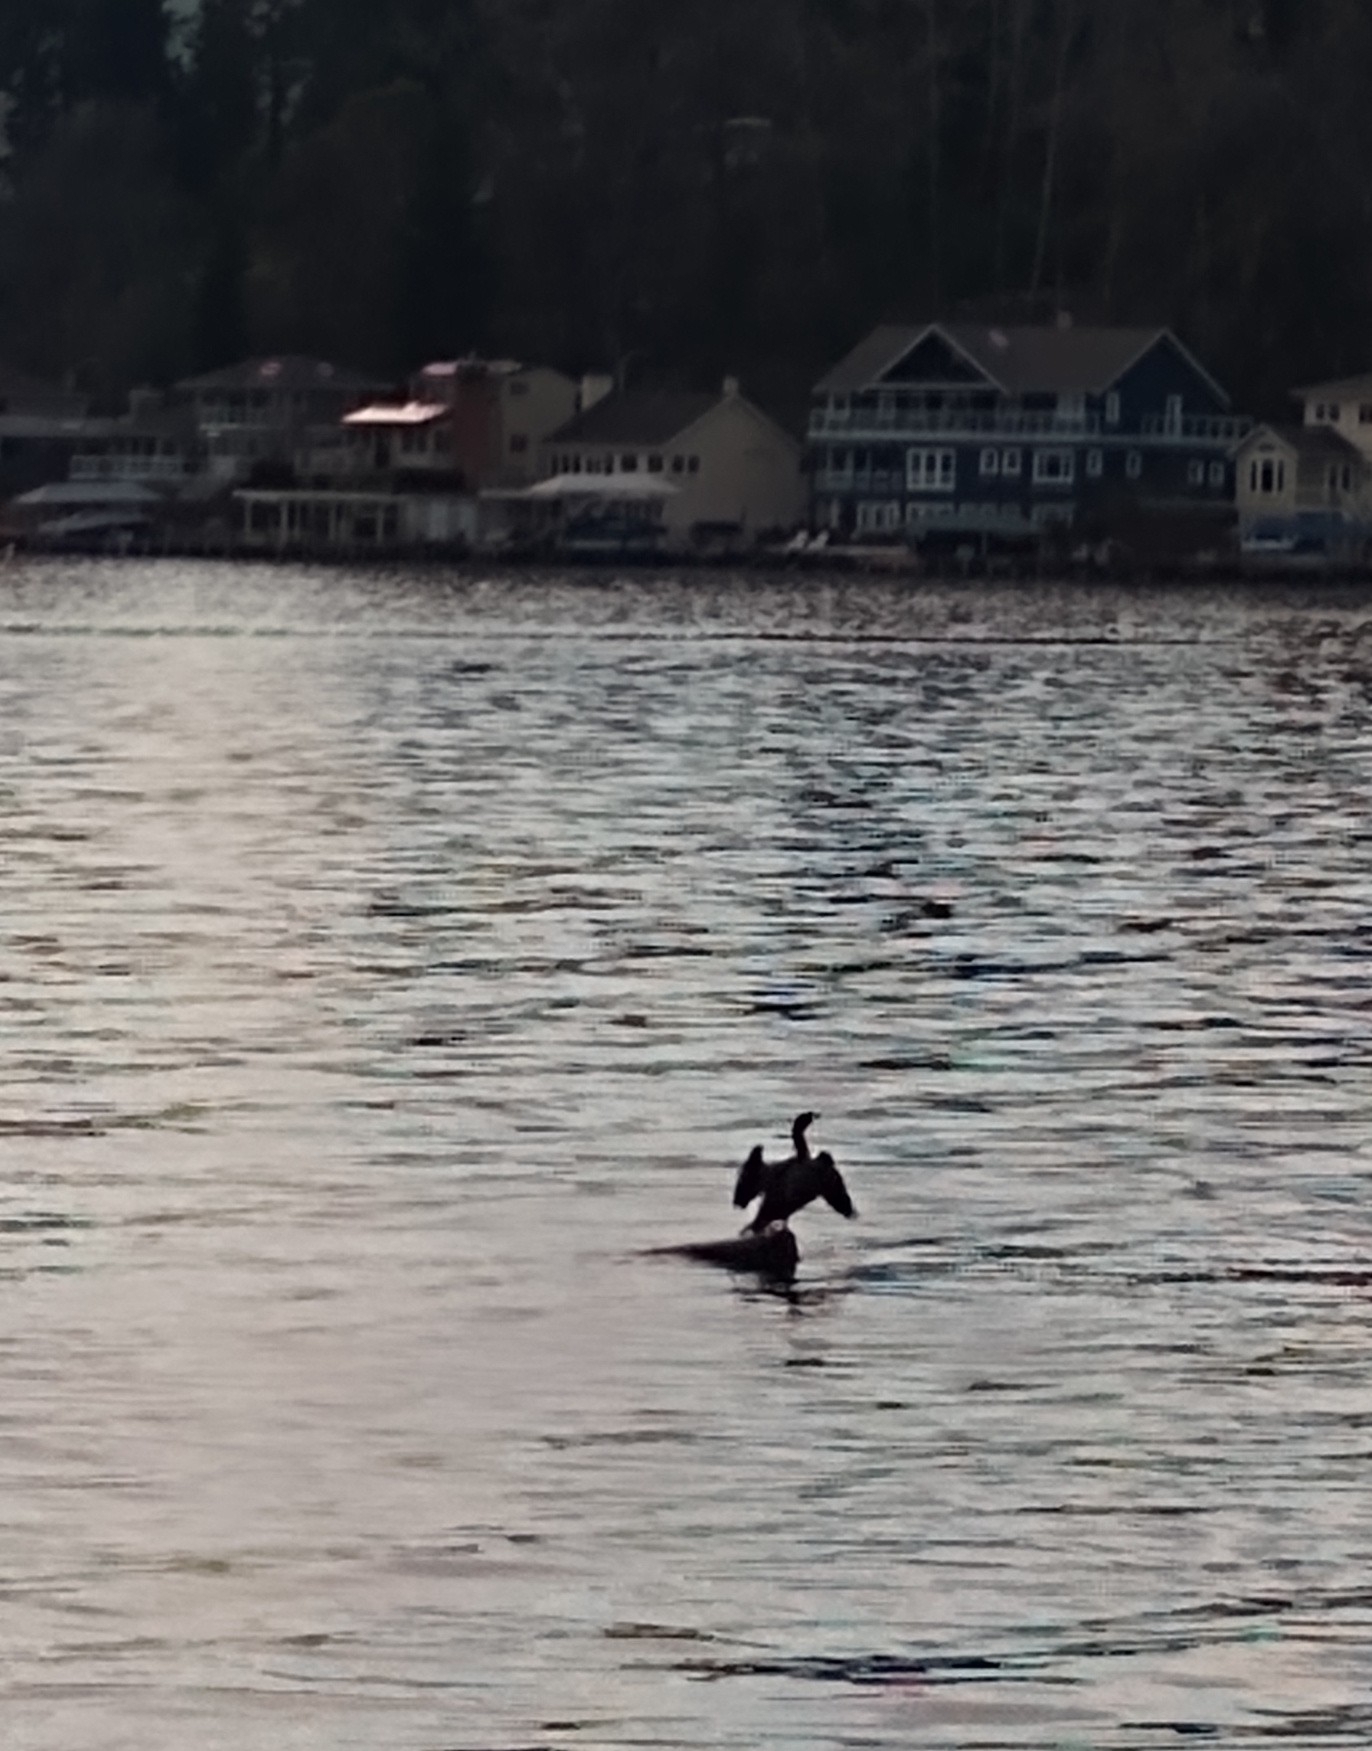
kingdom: Animalia
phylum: Chordata
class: Aves
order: Suliformes
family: Phalacrocoracidae
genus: Phalacrocorax
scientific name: Phalacrocorax auritus
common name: Double-crested cormorant
